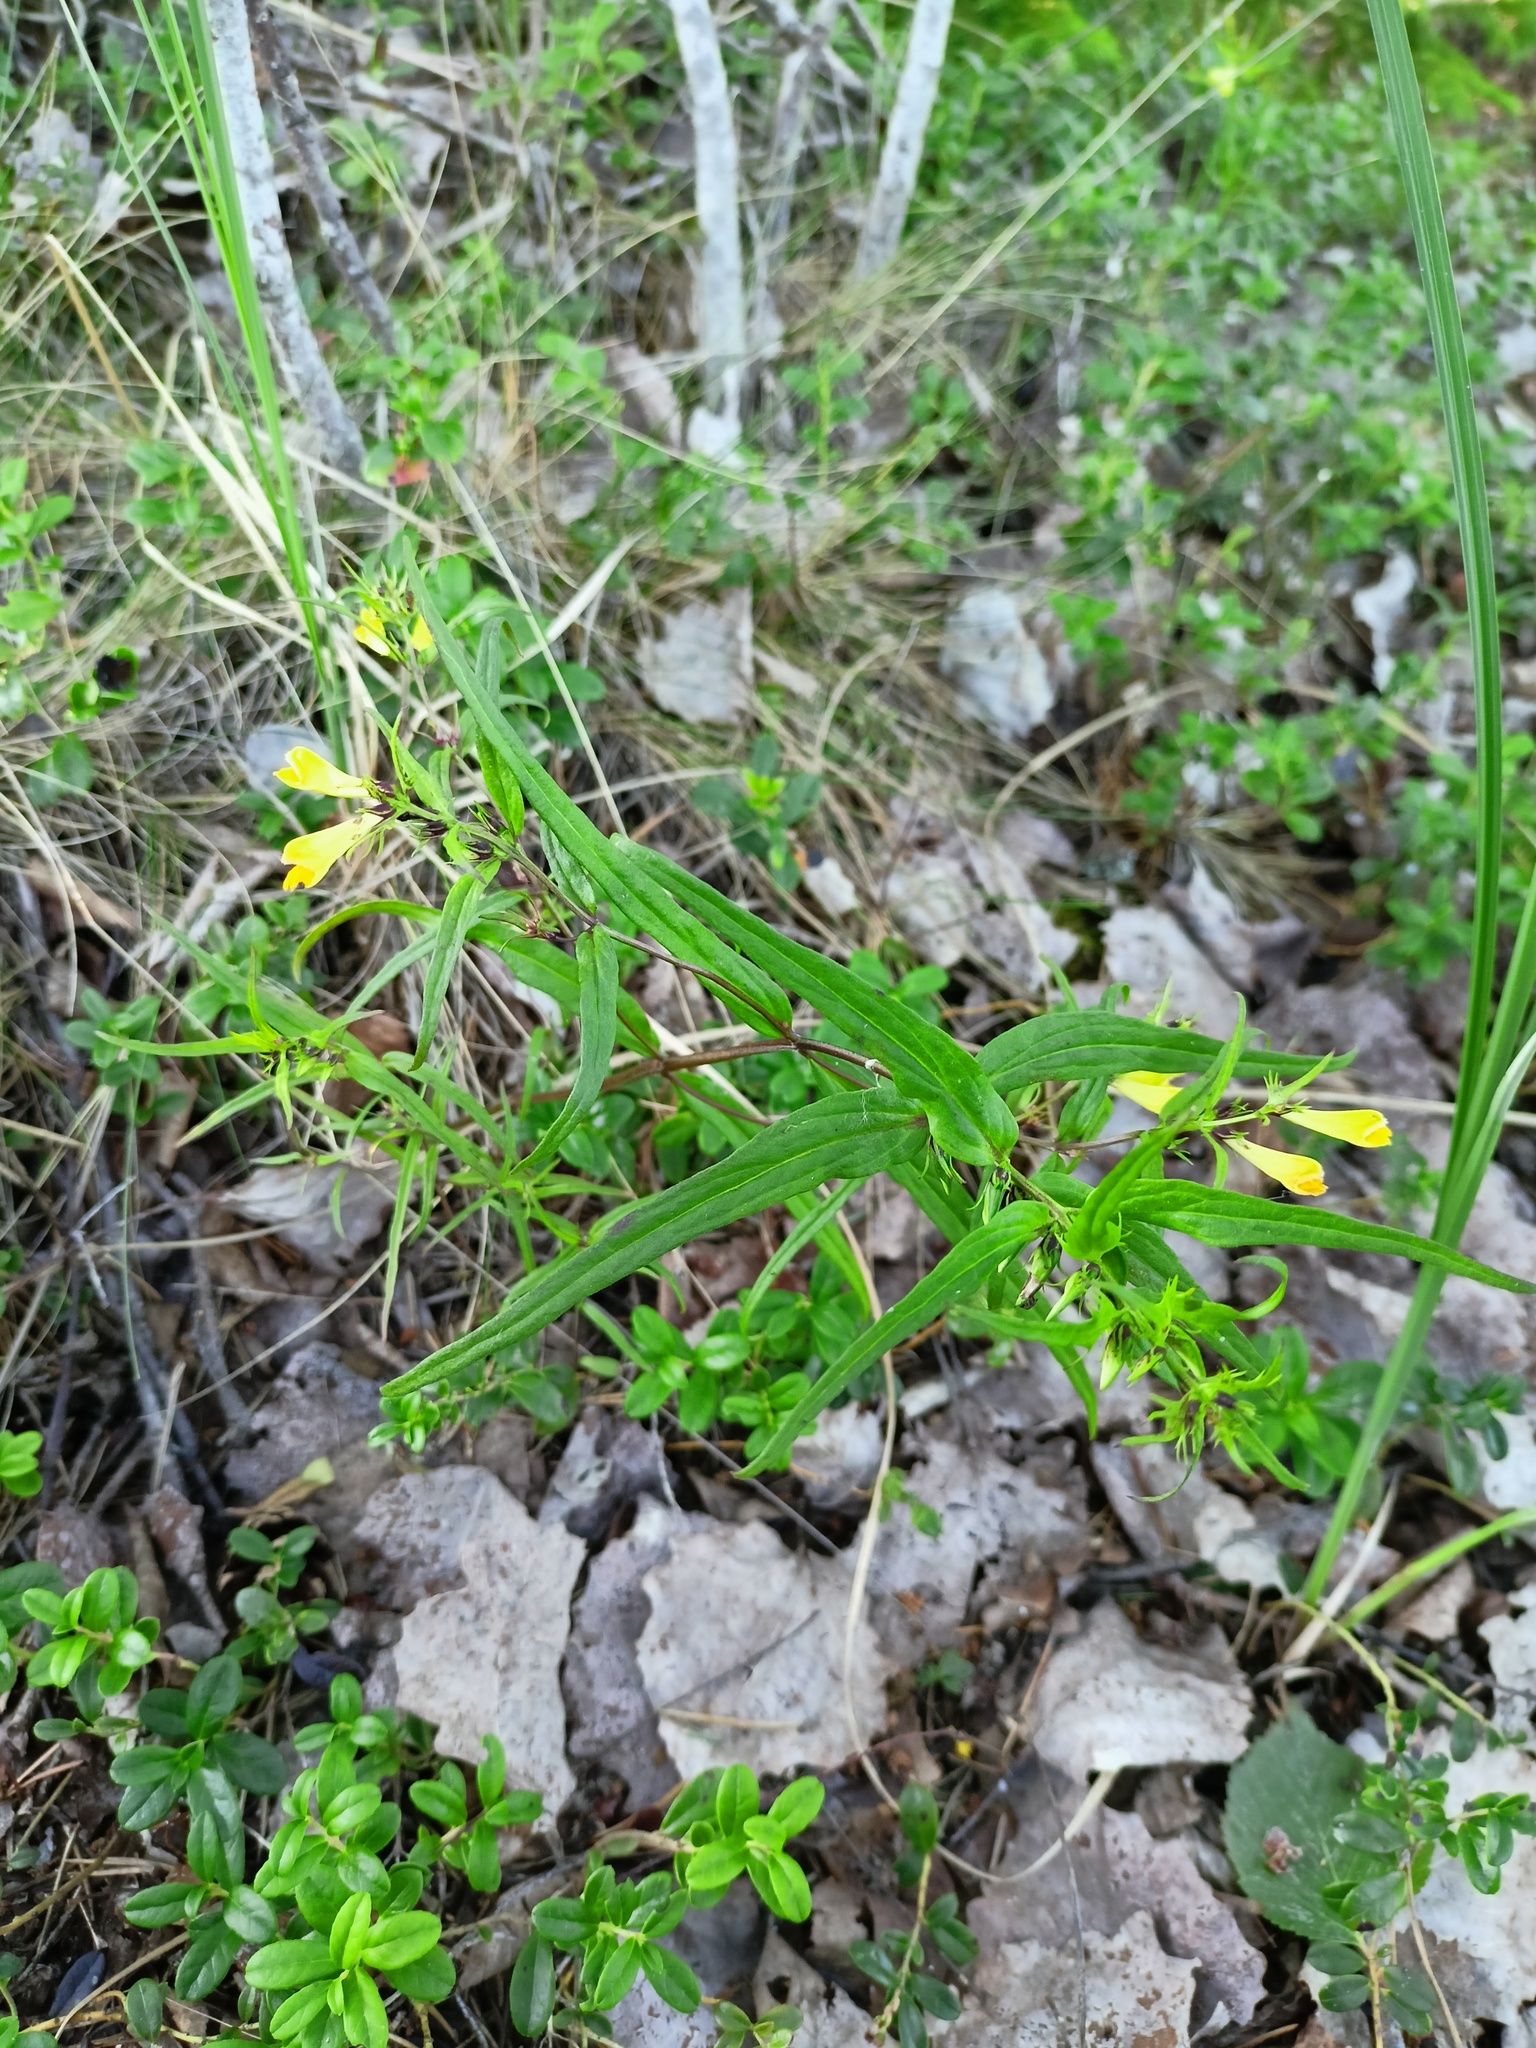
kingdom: Plantae
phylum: Tracheophyta
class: Magnoliopsida
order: Lamiales
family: Orobanchaceae
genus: Melampyrum
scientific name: Melampyrum pratense
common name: Common cow-wheat
